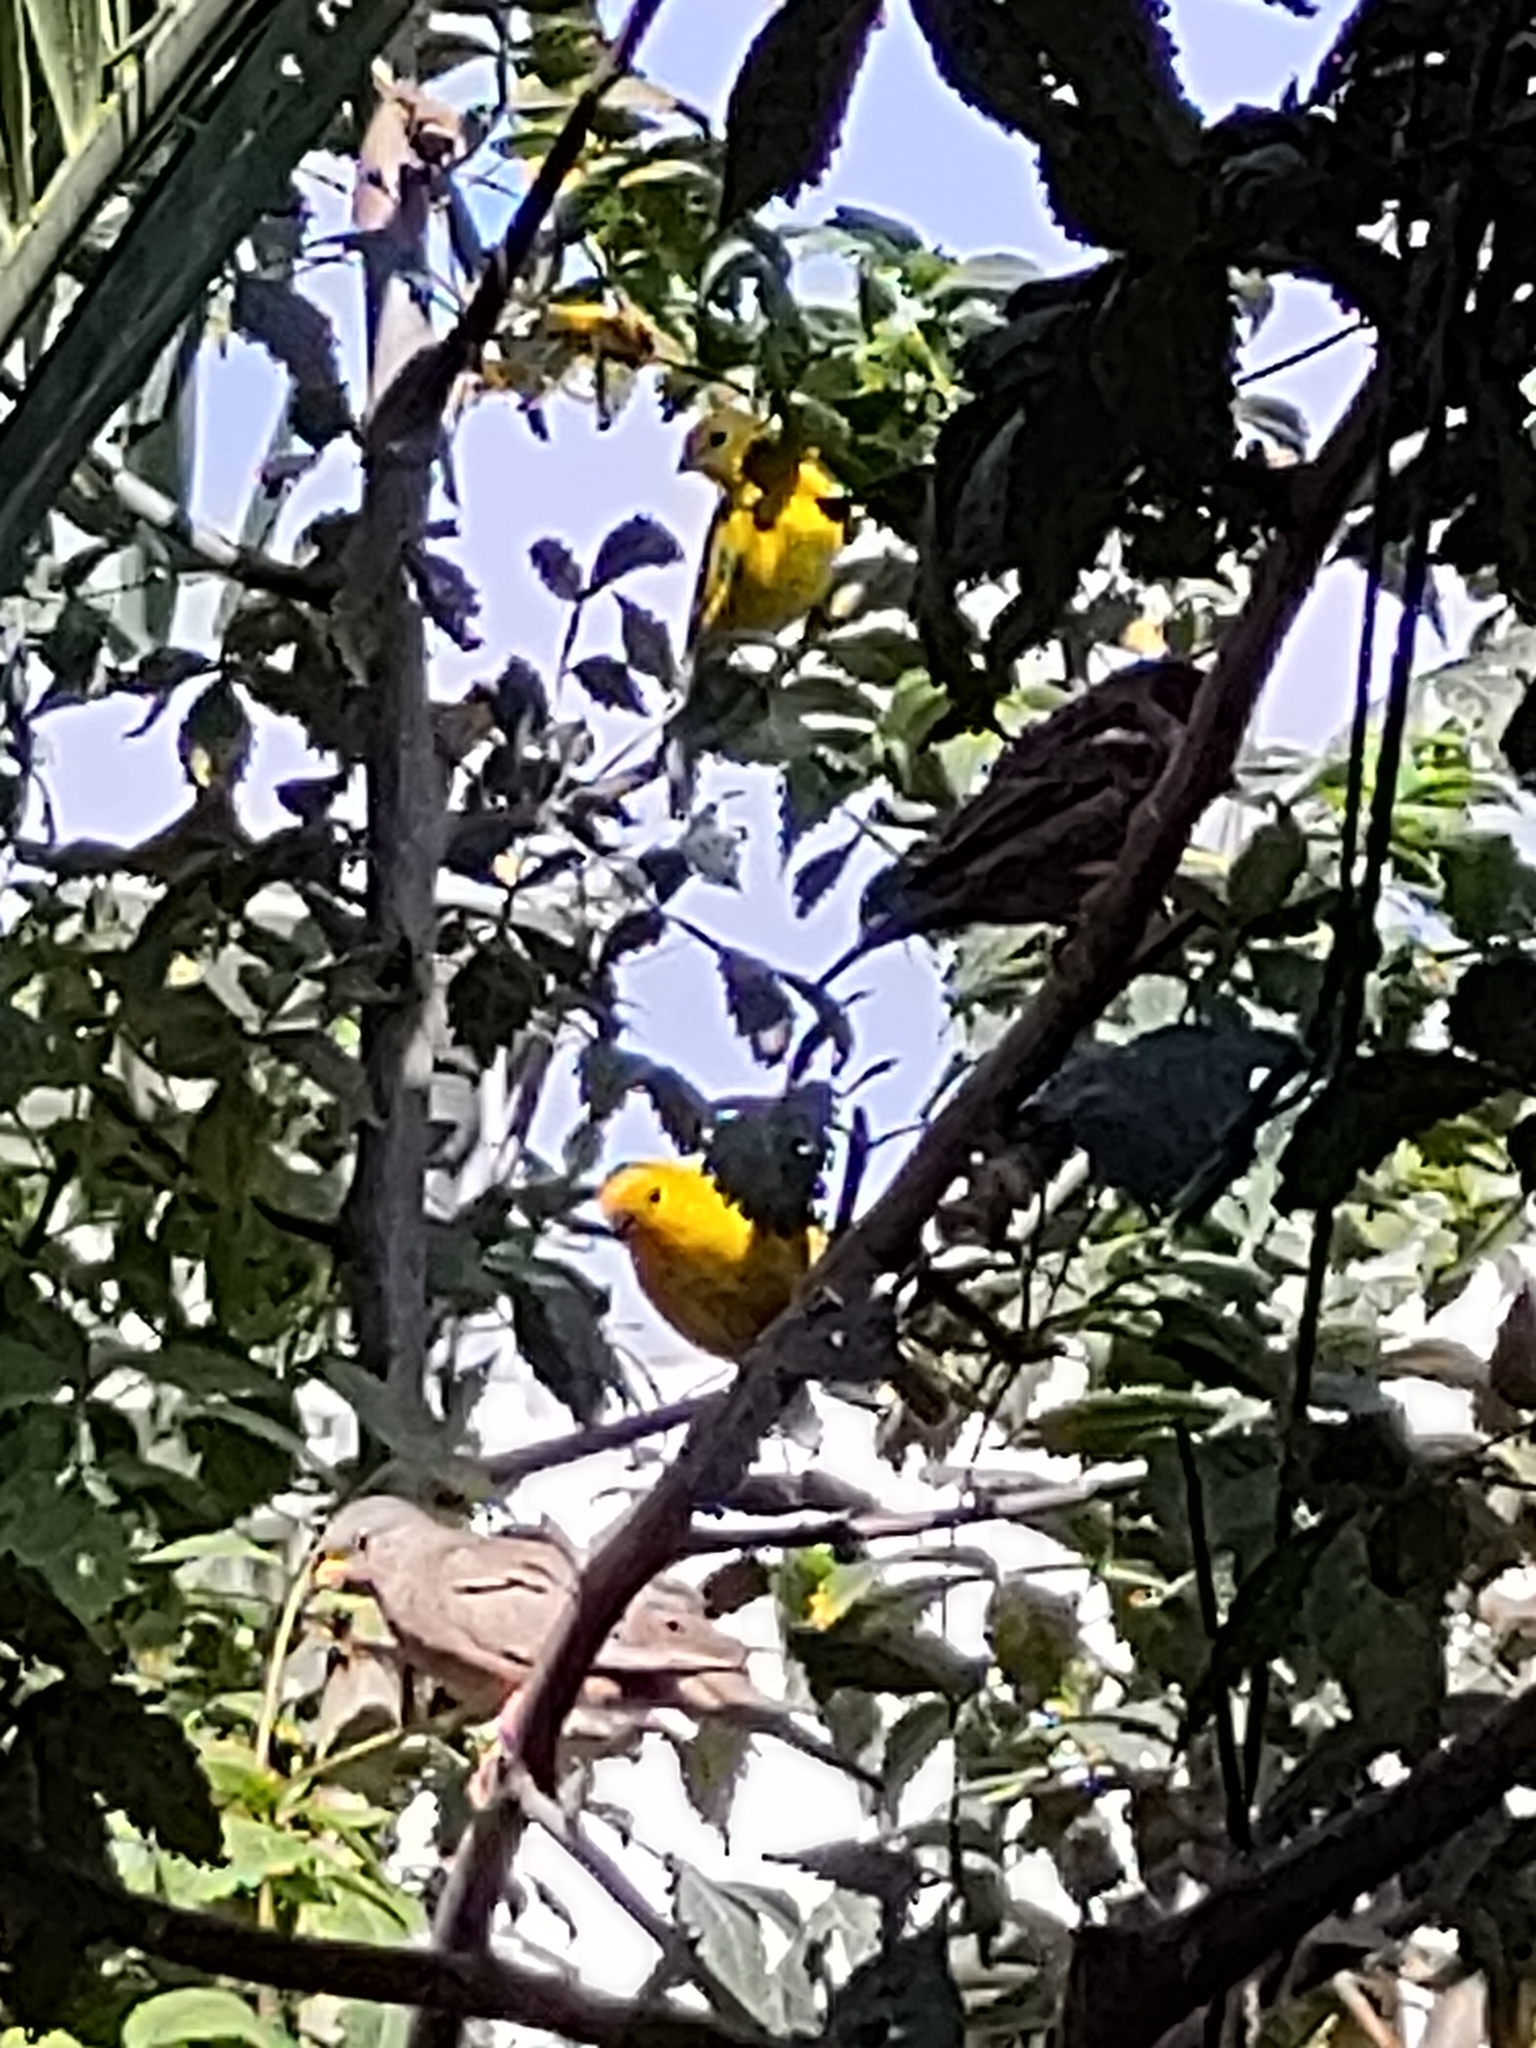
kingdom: Animalia
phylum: Chordata
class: Aves
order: Passeriformes
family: Thraupidae
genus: Sicalis
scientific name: Sicalis flaveola
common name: Saffron finch
